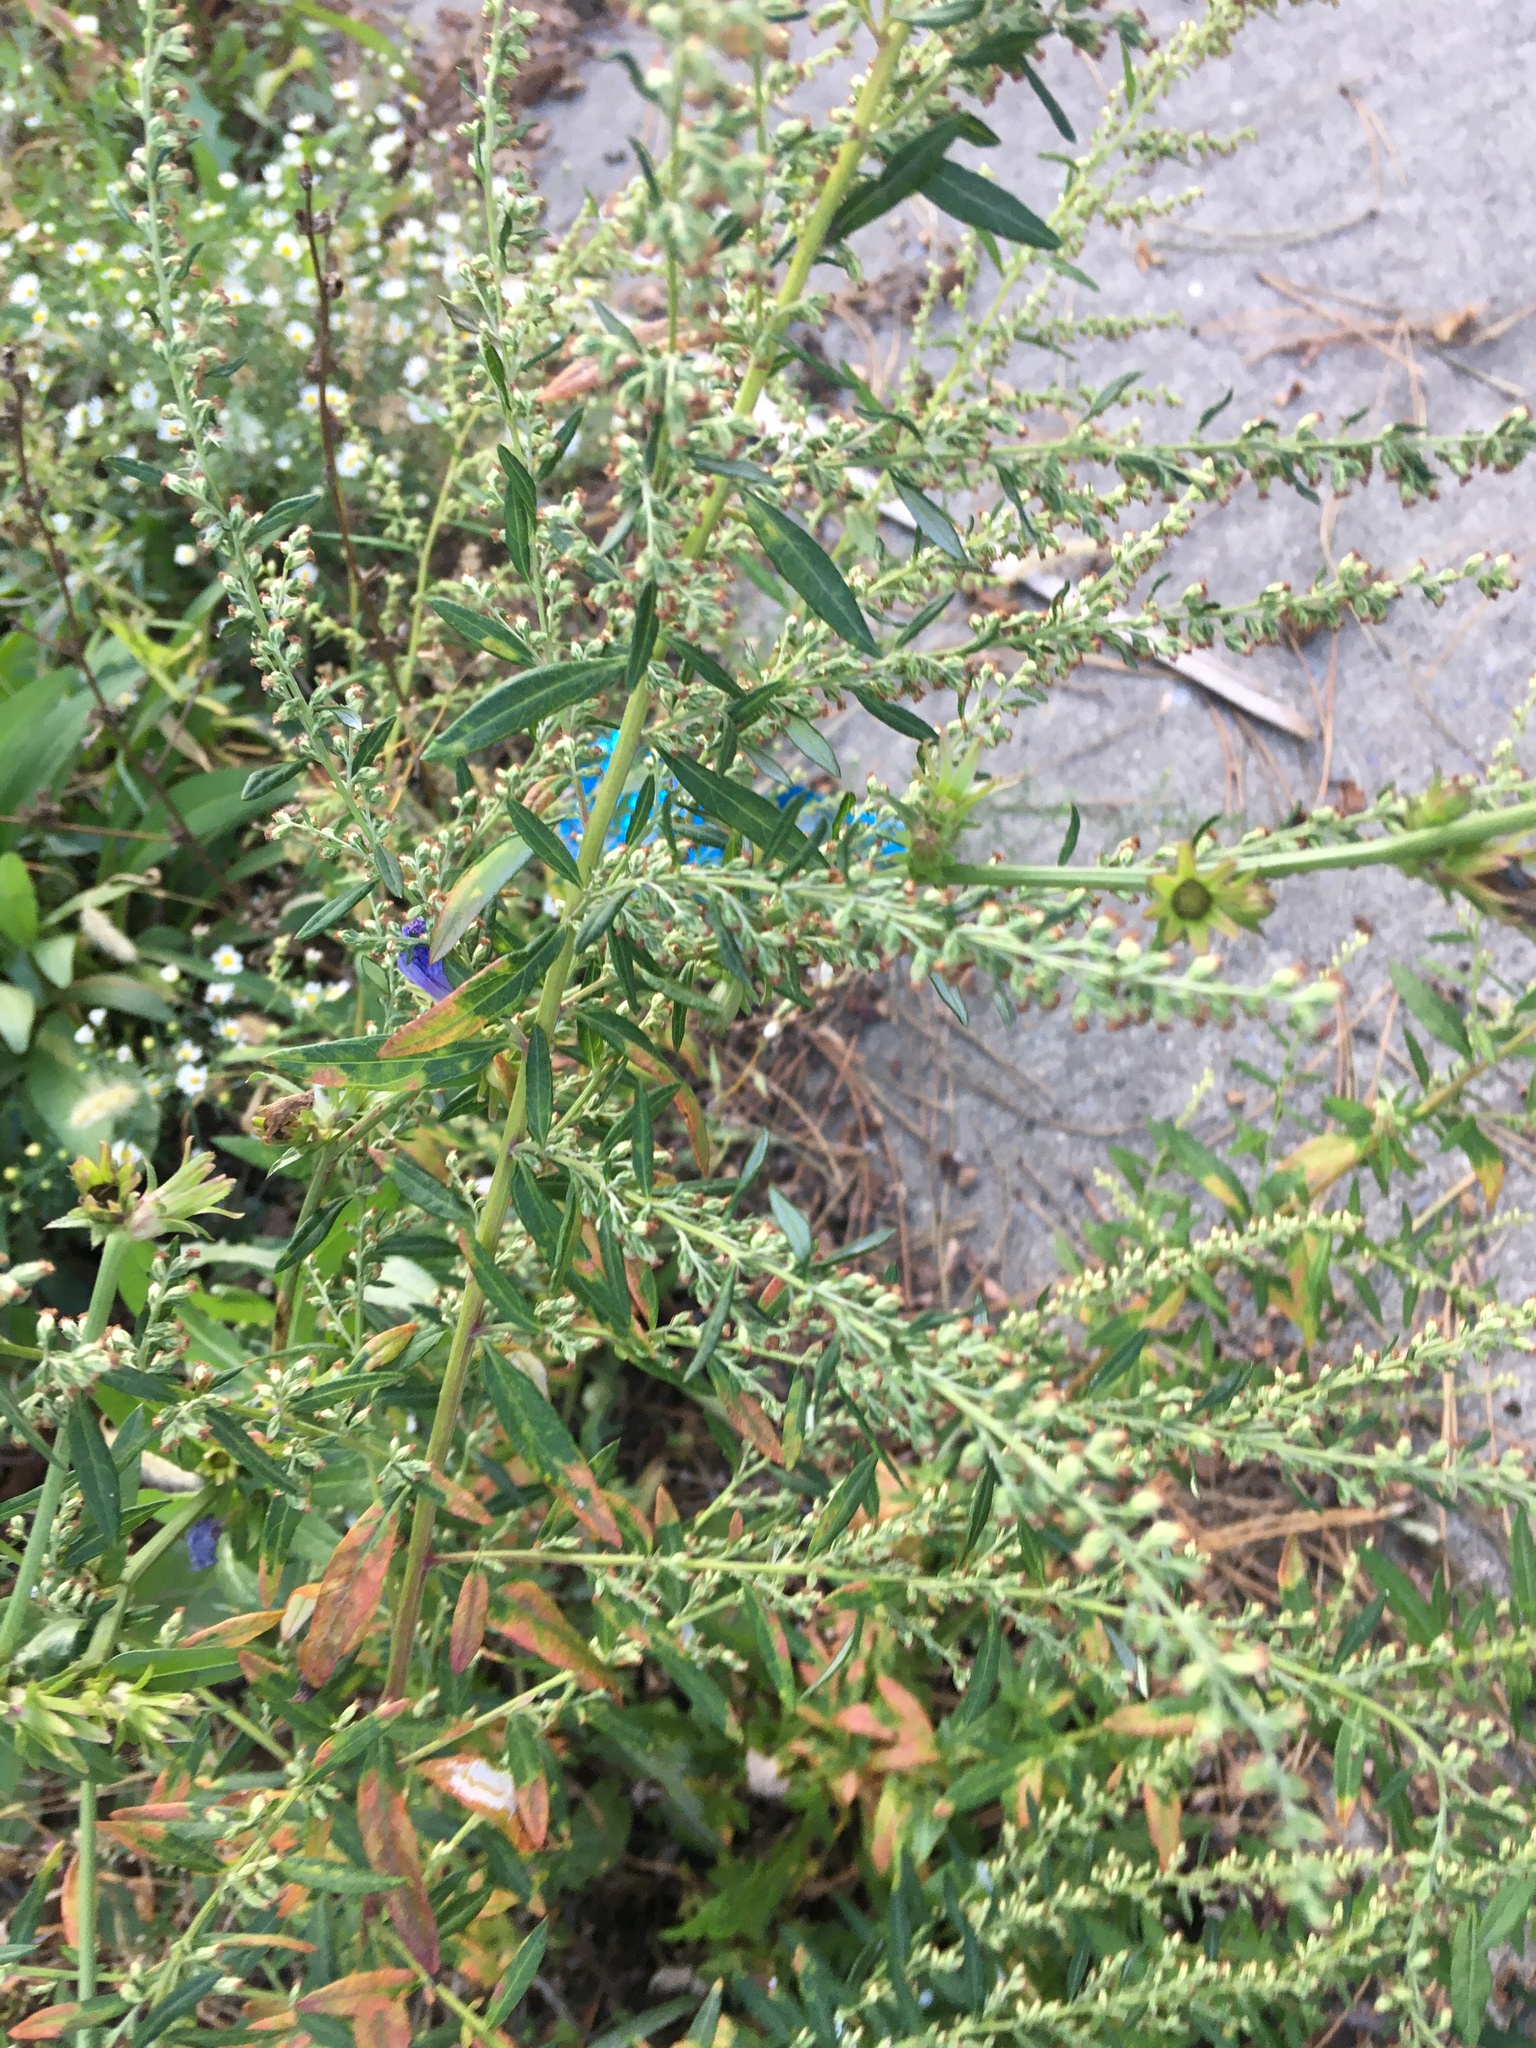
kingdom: Plantae
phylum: Tracheophyta
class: Magnoliopsida
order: Asterales
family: Asteraceae
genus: Artemisia
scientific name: Artemisia vulgaris
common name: Mugwort
